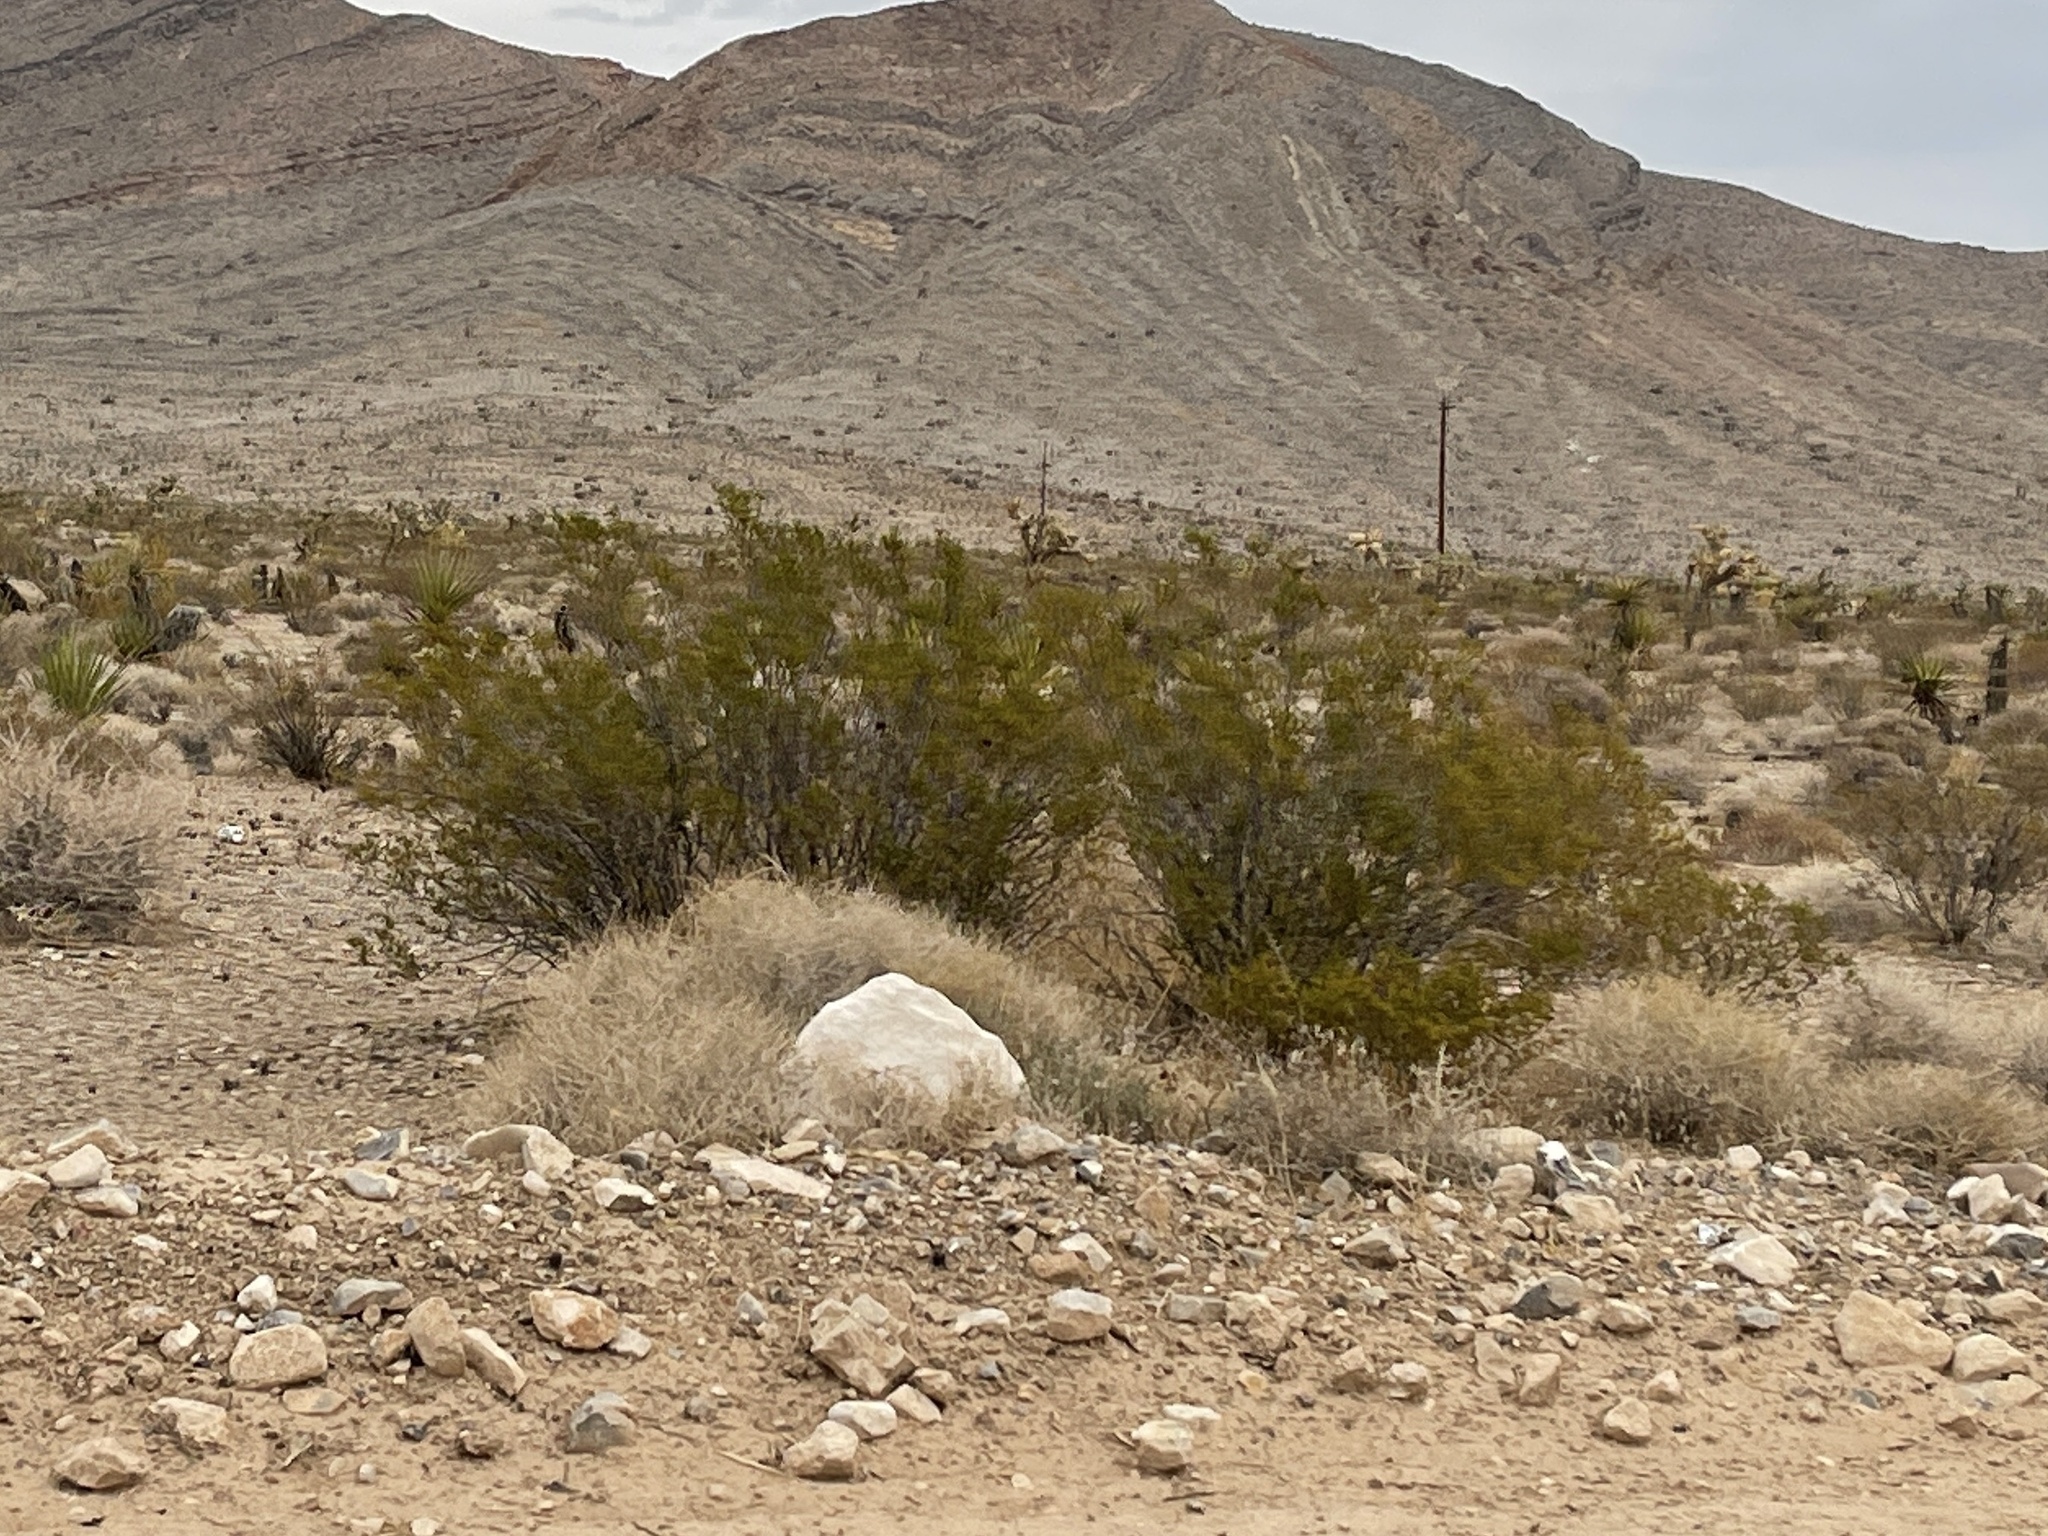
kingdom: Plantae
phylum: Tracheophyta
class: Magnoliopsida
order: Zygophyllales
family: Zygophyllaceae
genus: Larrea
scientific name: Larrea tridentata
